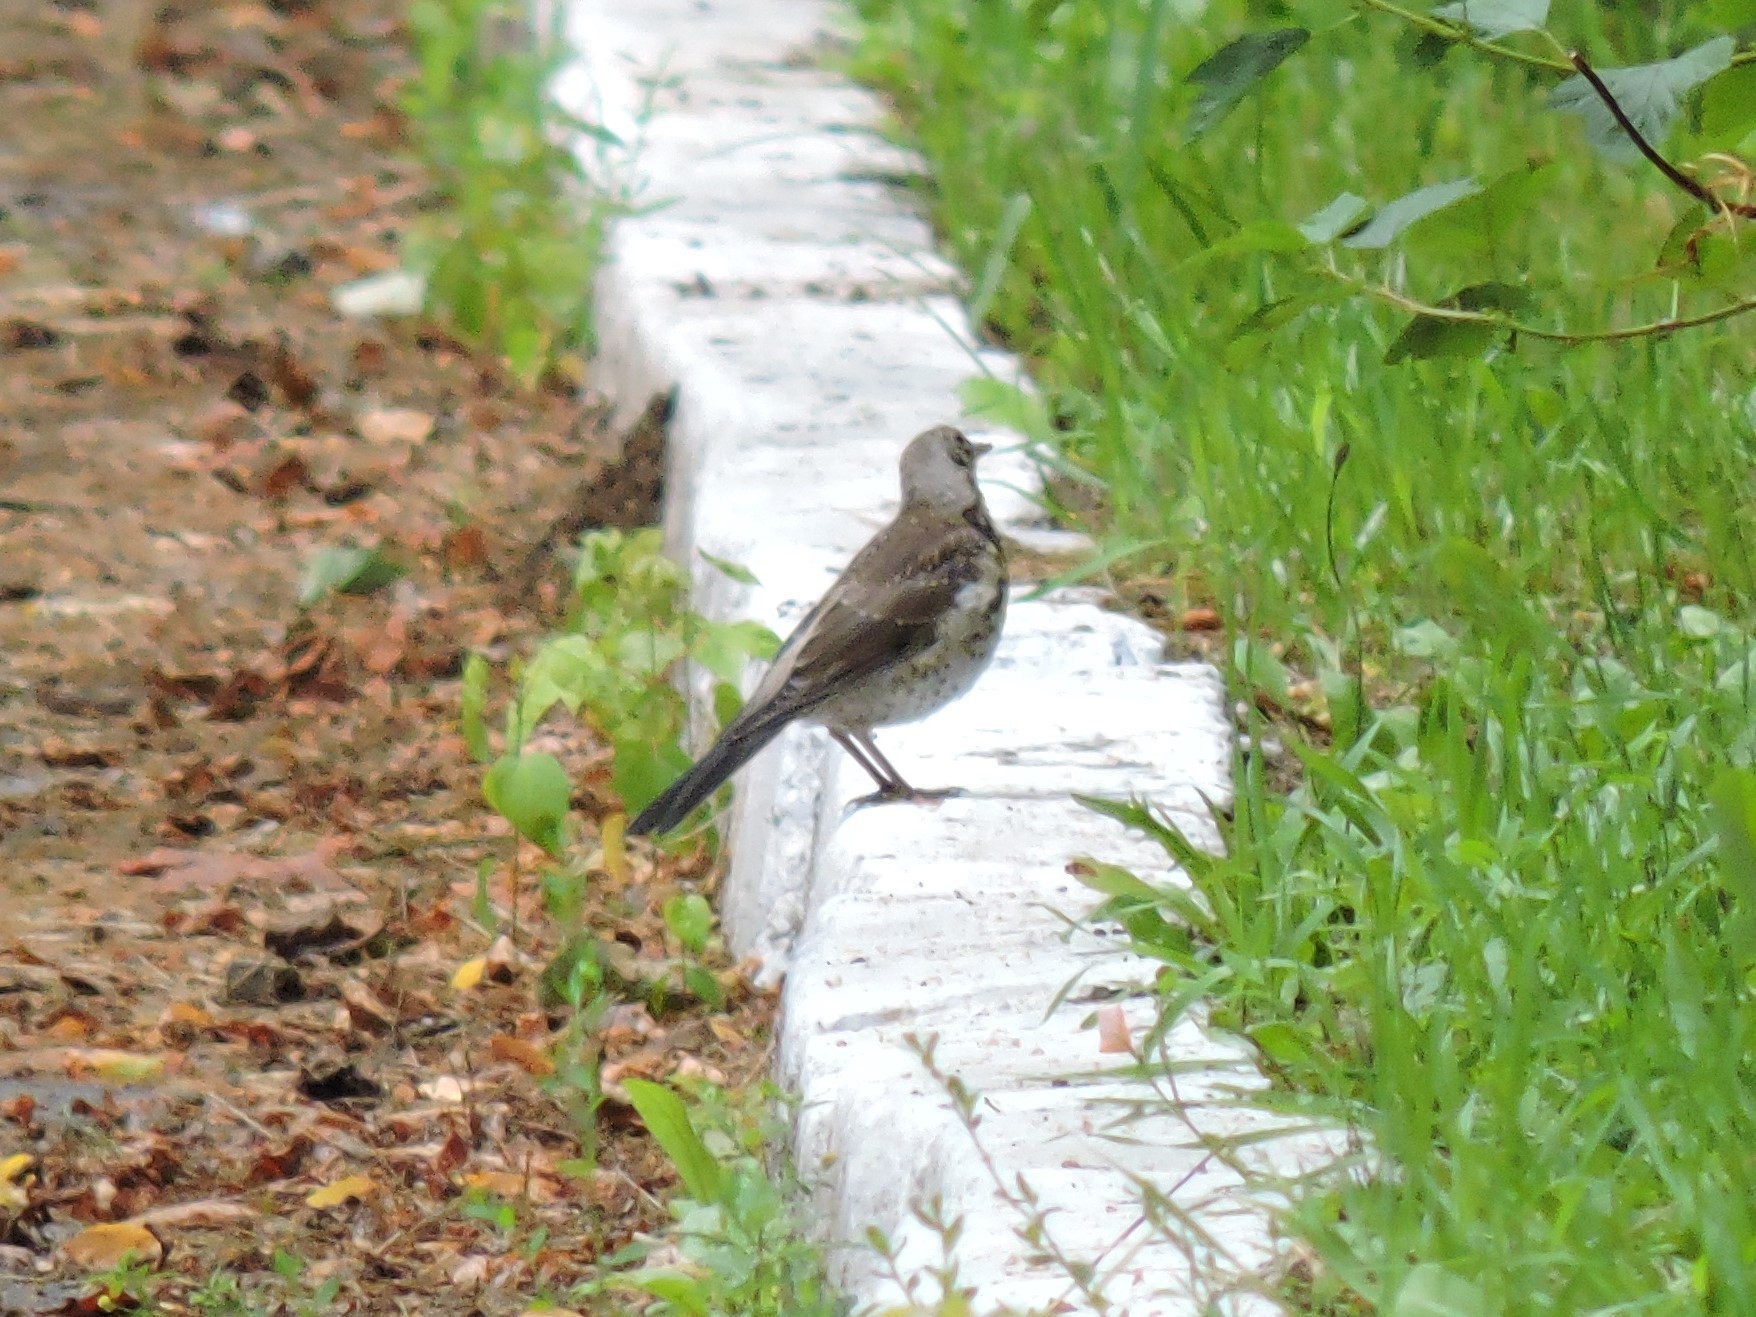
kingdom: Animalia
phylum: Chordata
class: Aves
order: Passeriformes
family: Turdidae
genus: Turdus
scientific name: Turdus pilaris
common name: Fieldfare
